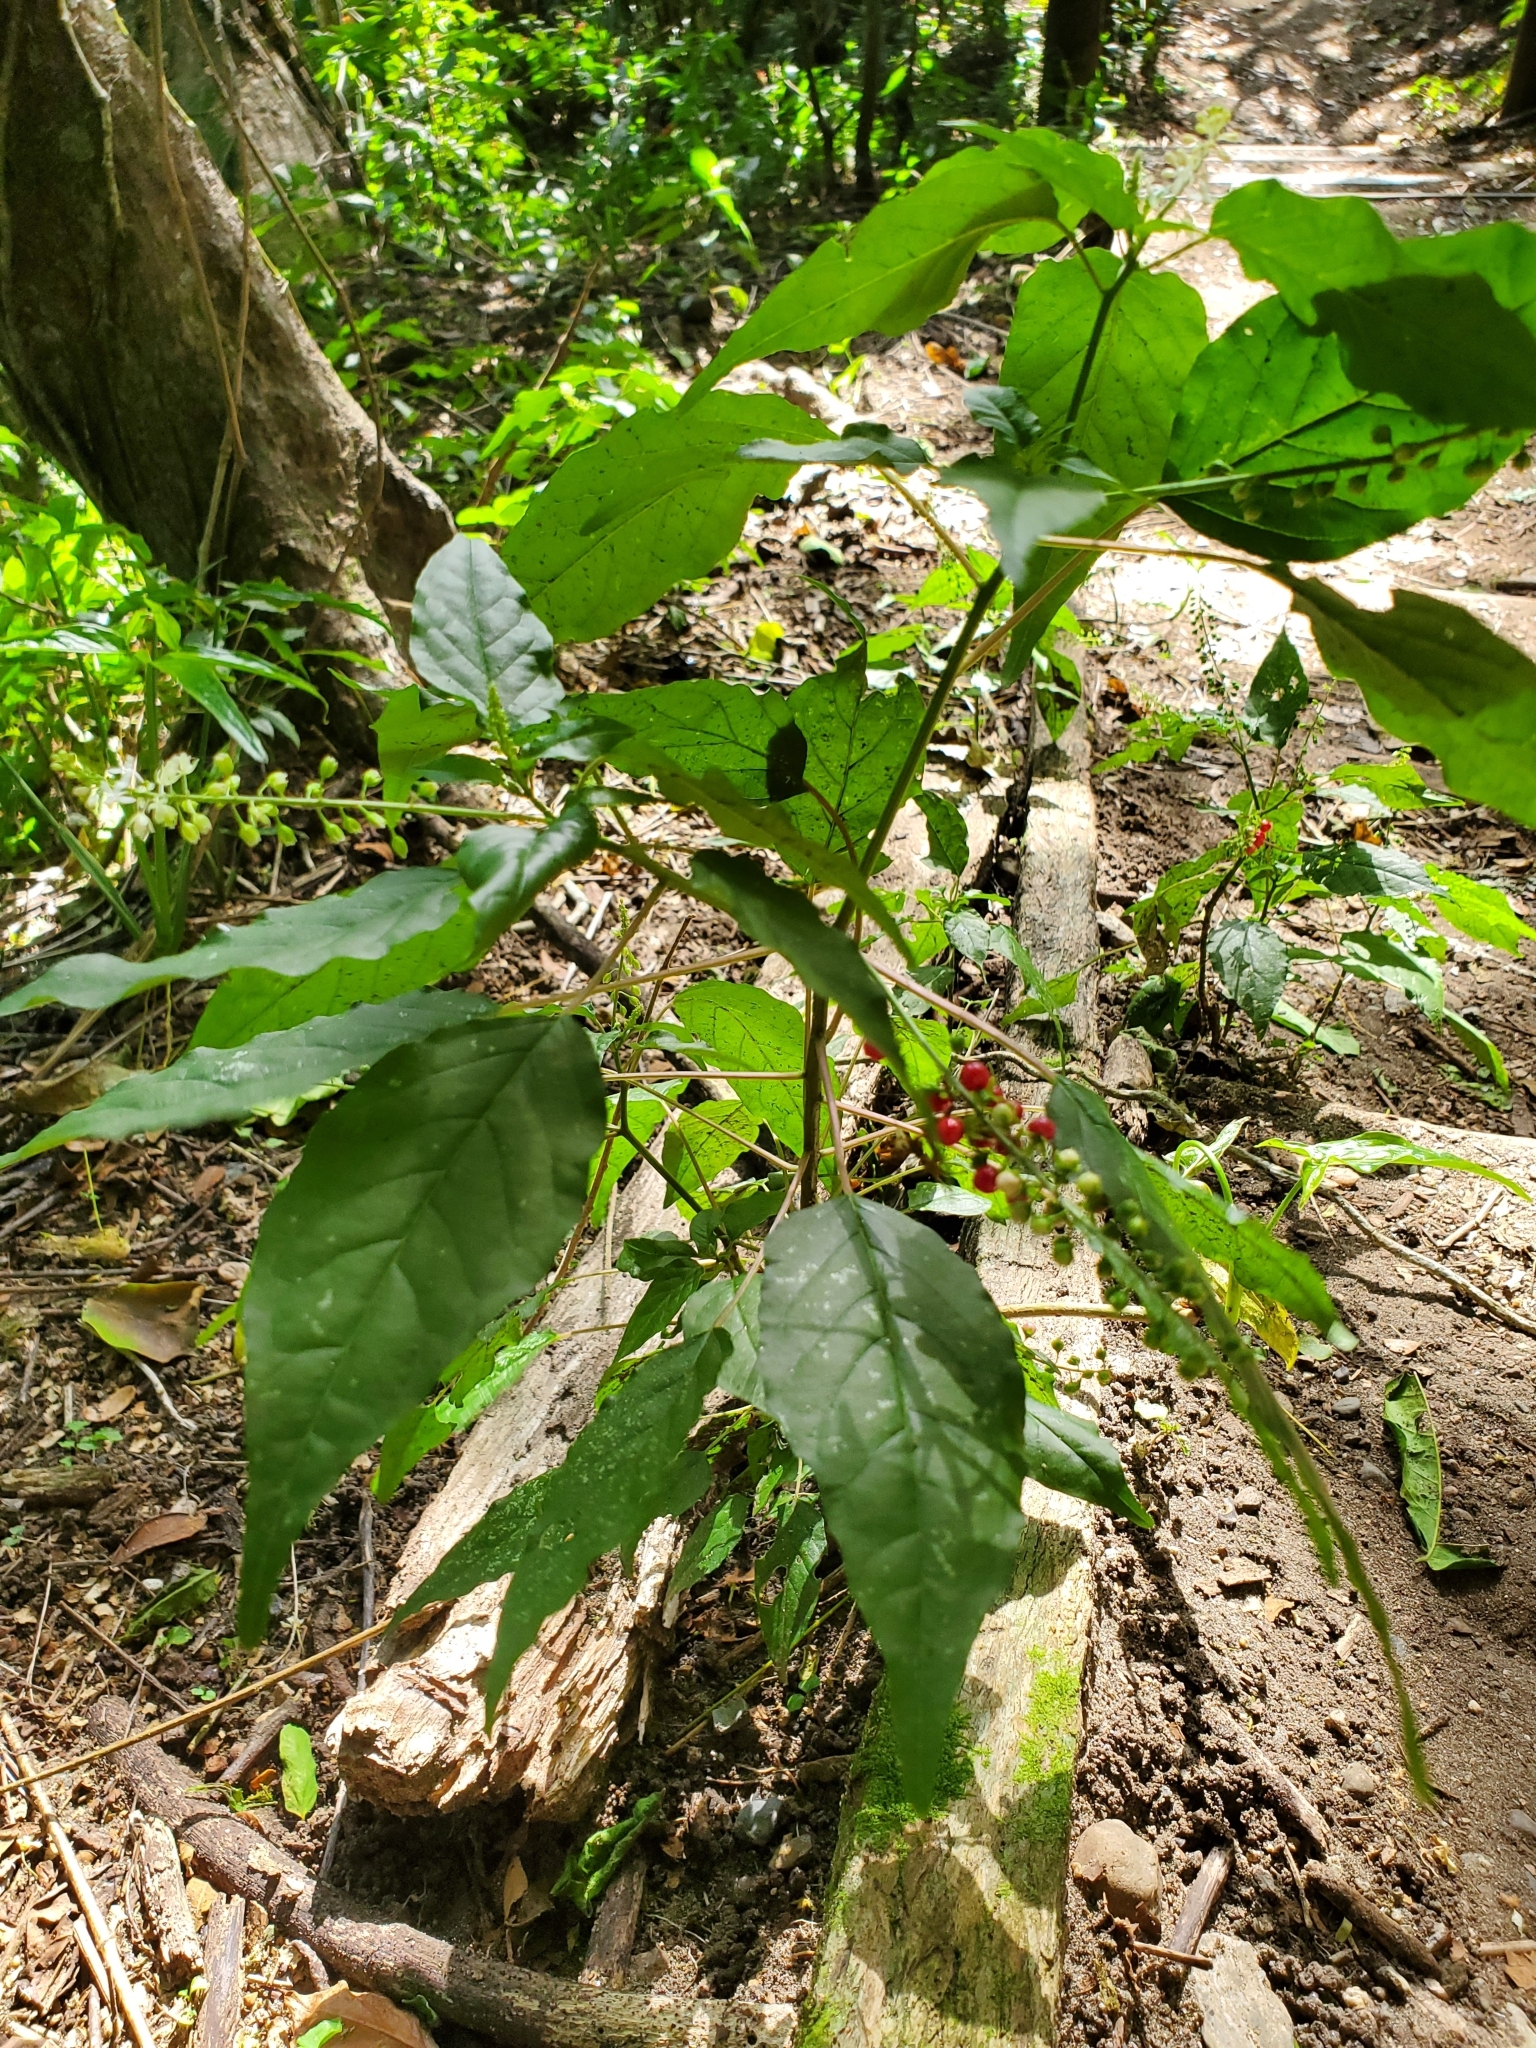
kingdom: Plantae
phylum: Tracheophyta
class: Magnoliopsida
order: Caryophyllales
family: Phytolaccaceae
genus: Rivina
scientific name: Rivina humilis
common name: Rougeplant
